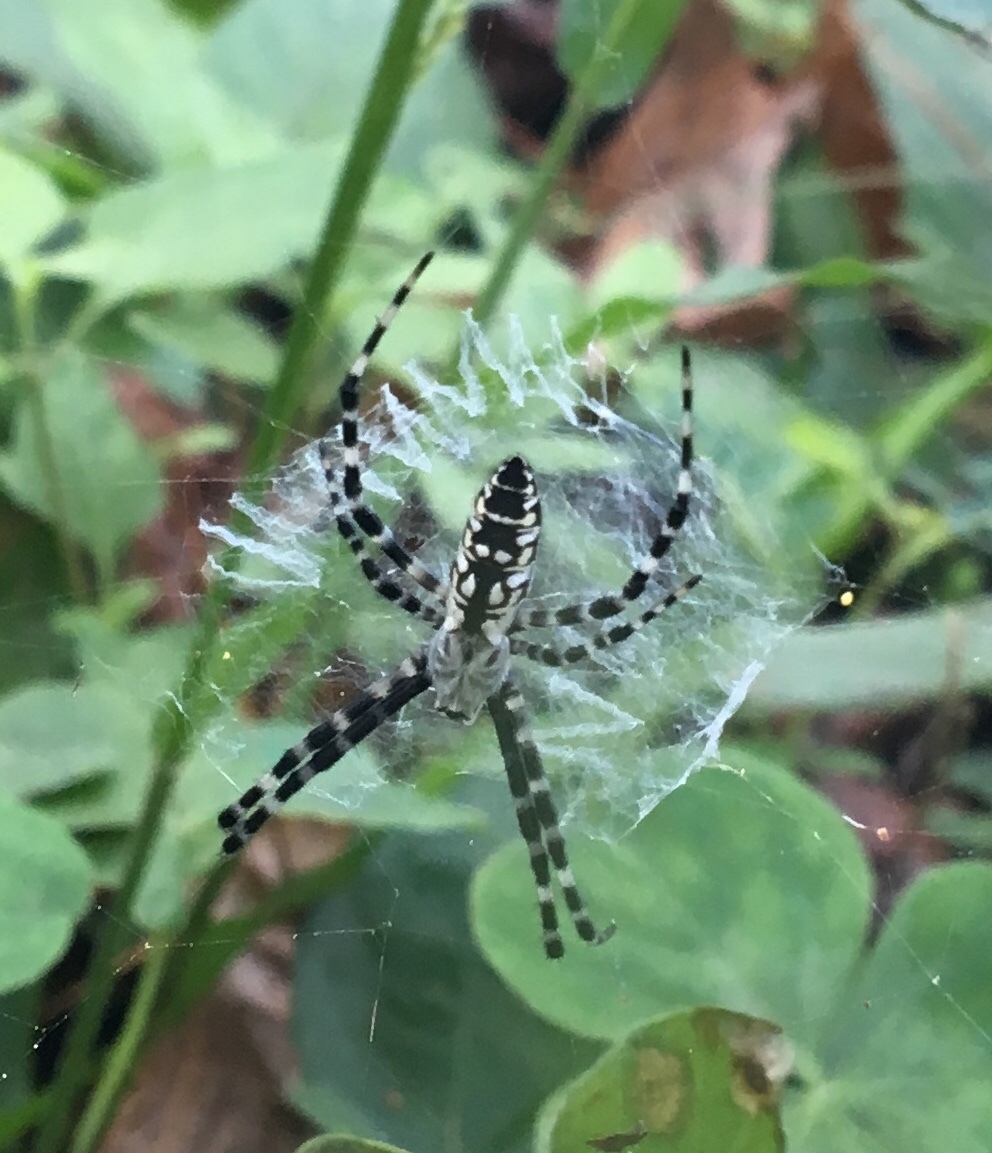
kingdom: Animalia
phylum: Arthropoda
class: Arachnida
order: Araneae
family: Araneidae
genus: Argiope
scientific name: Argiope aurantia
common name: Orb weavers
